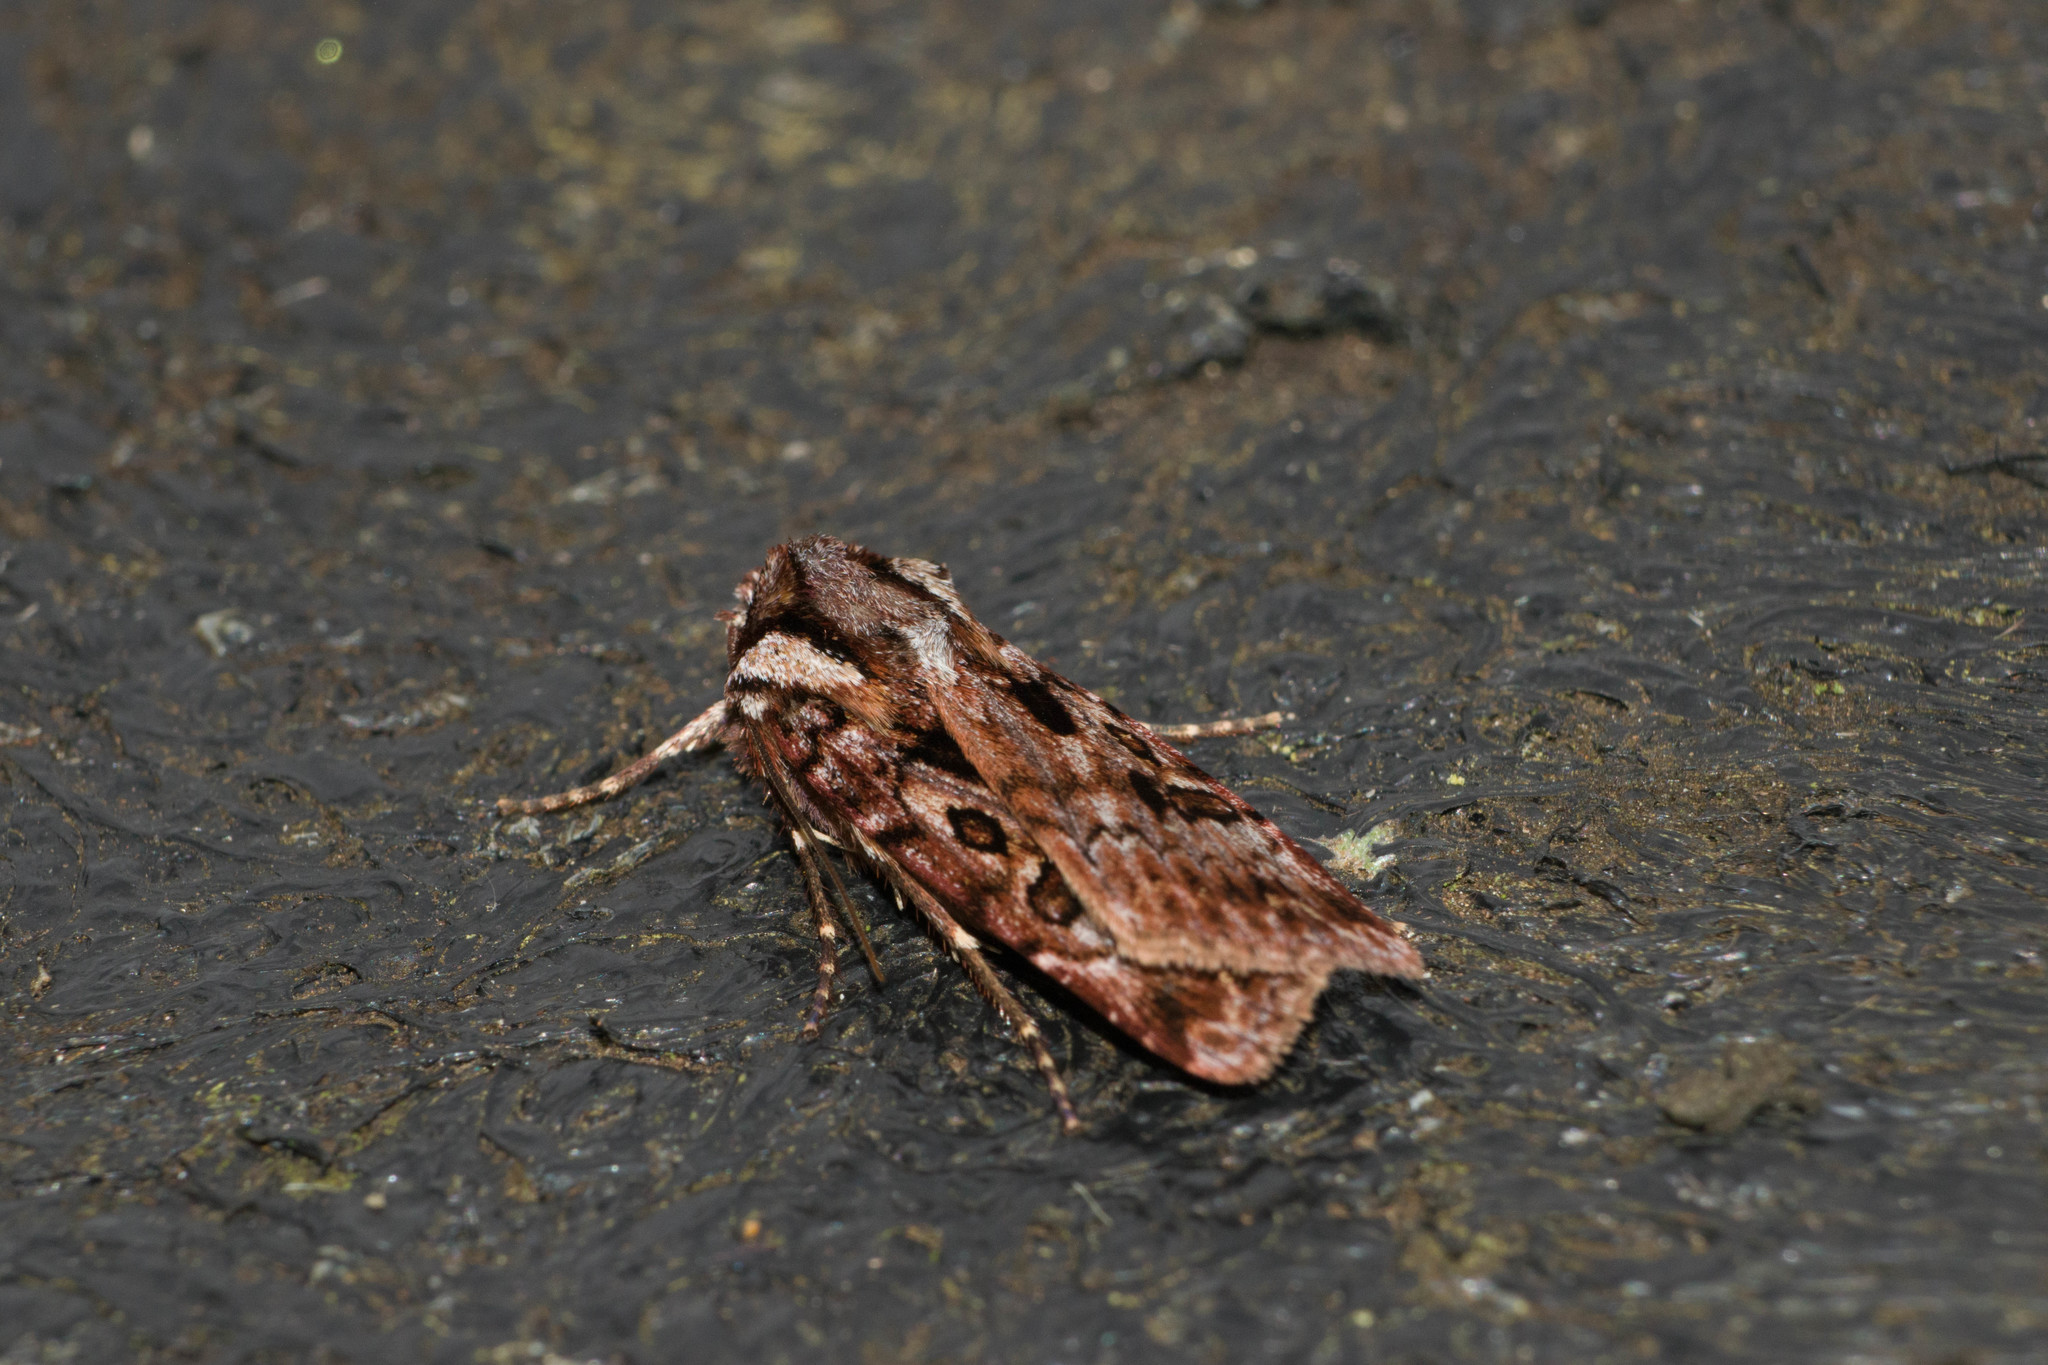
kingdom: Animalia
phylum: Arthropoda
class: Insecta
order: Lepidoptera
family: Noctuidae
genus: Agrotis
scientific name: Agrotis charmocrita
